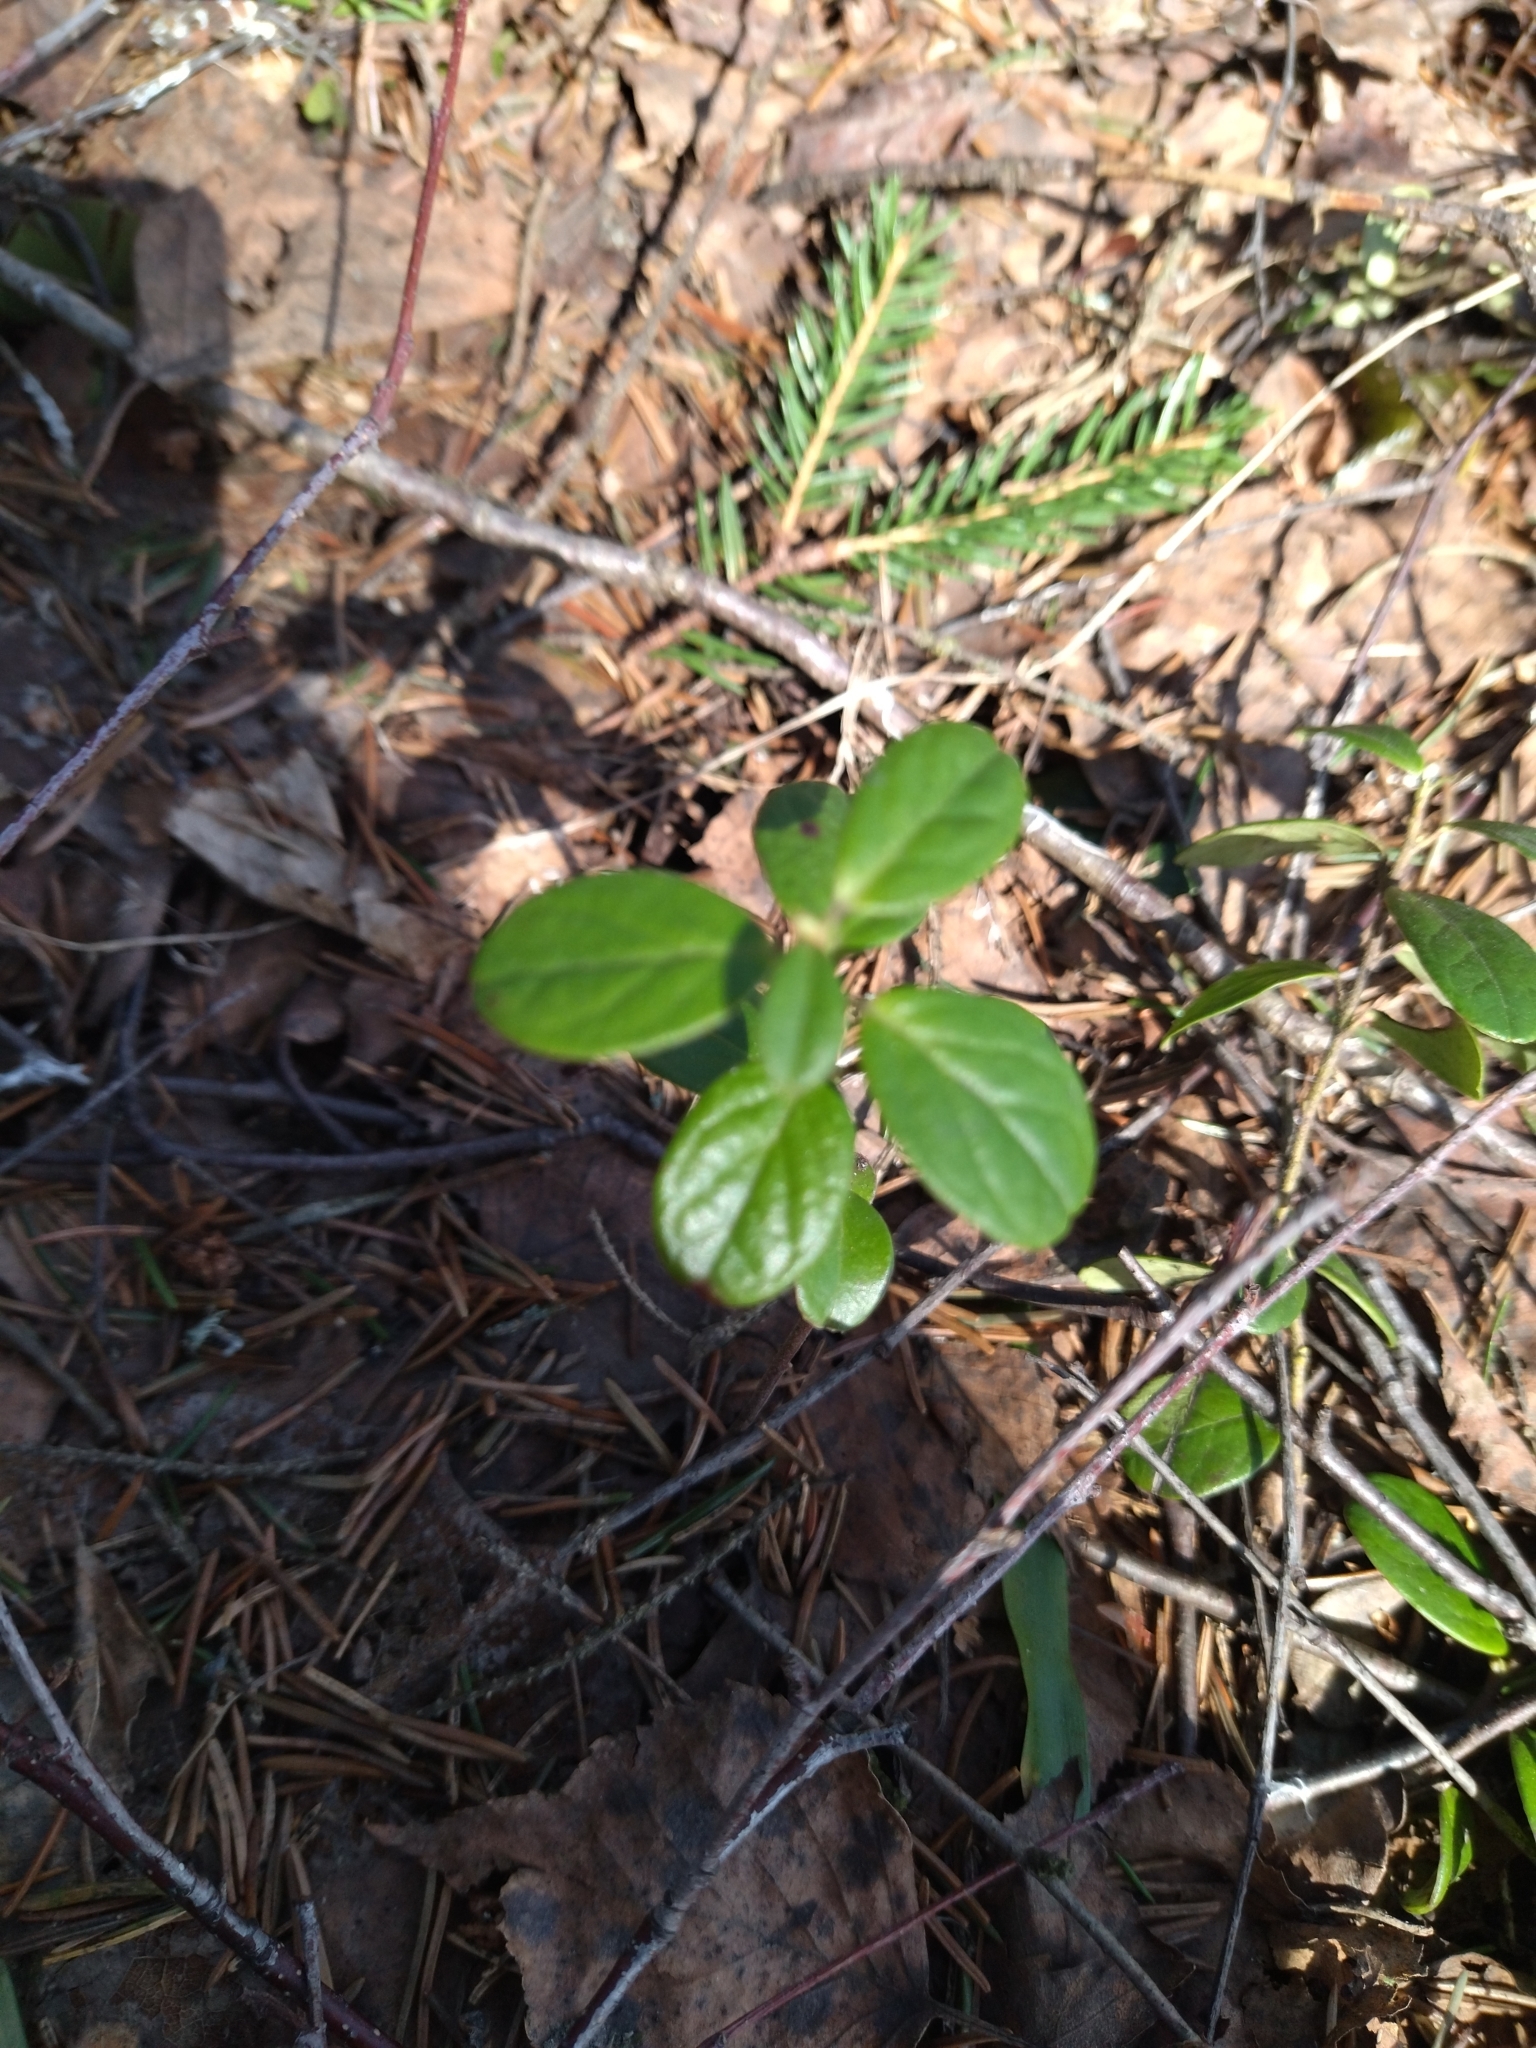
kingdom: Plantae
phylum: Tracheophyta
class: Magnoliopsida
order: Ericales
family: Ericaceae
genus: Vaccinium
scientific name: Vaccinium vitis-idaea
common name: Cowberry
